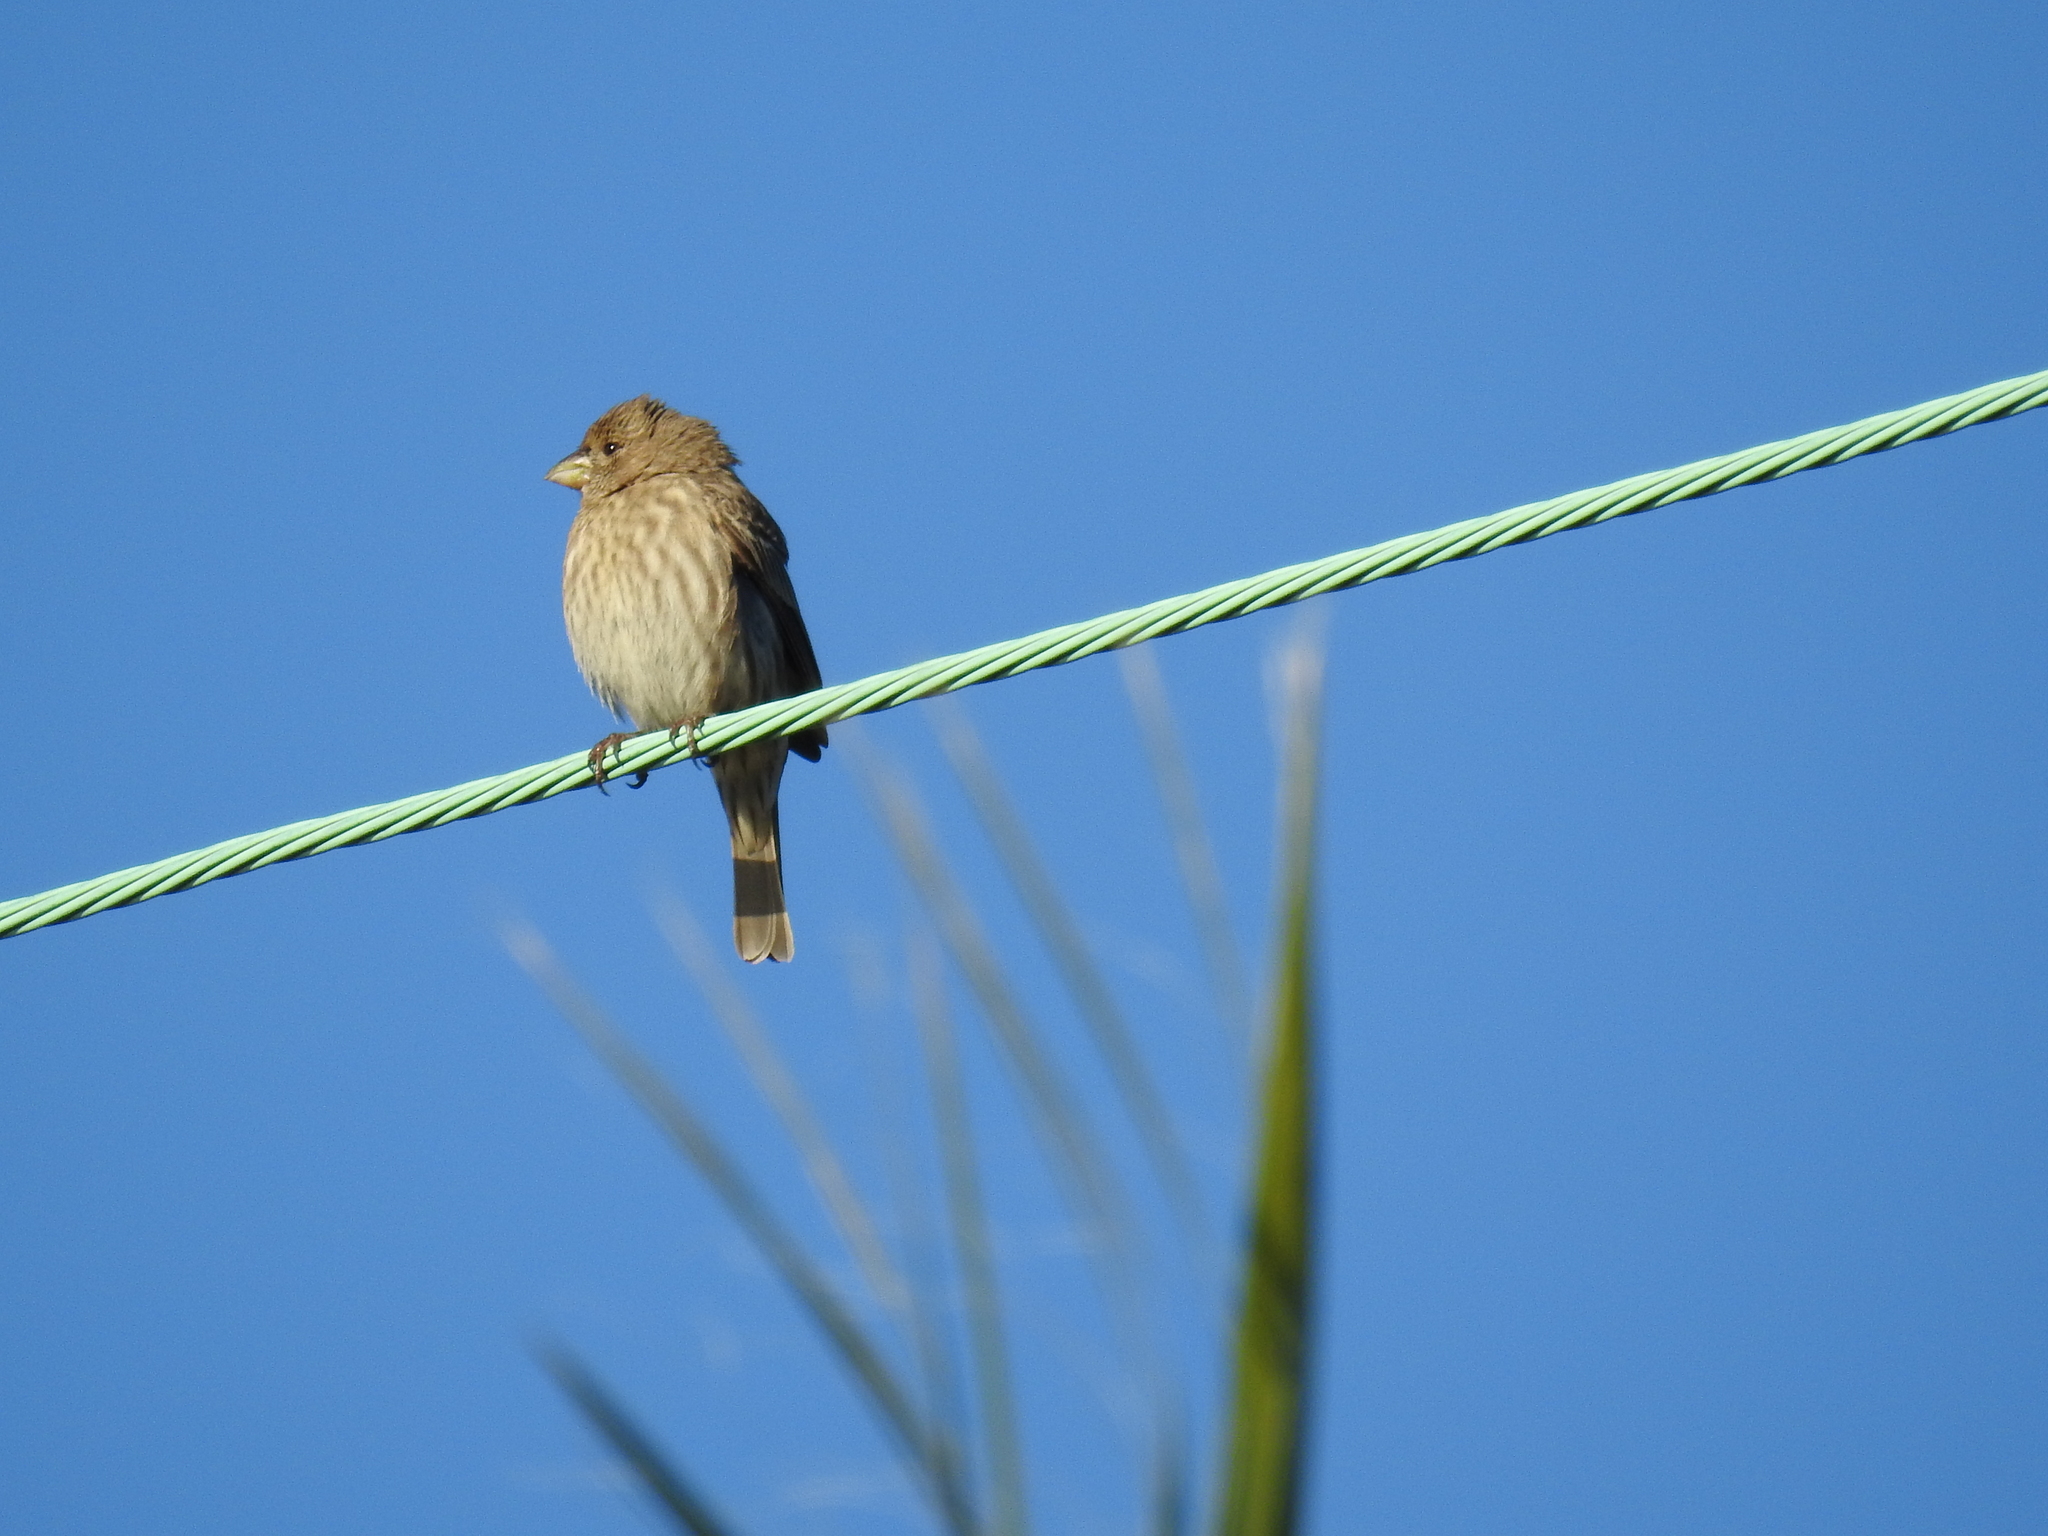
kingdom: Animalia
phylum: Chordata
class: Aves
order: Passeriformes
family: Fringillidae
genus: Haemorhous
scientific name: Haemorhous mexicanus
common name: House finch
